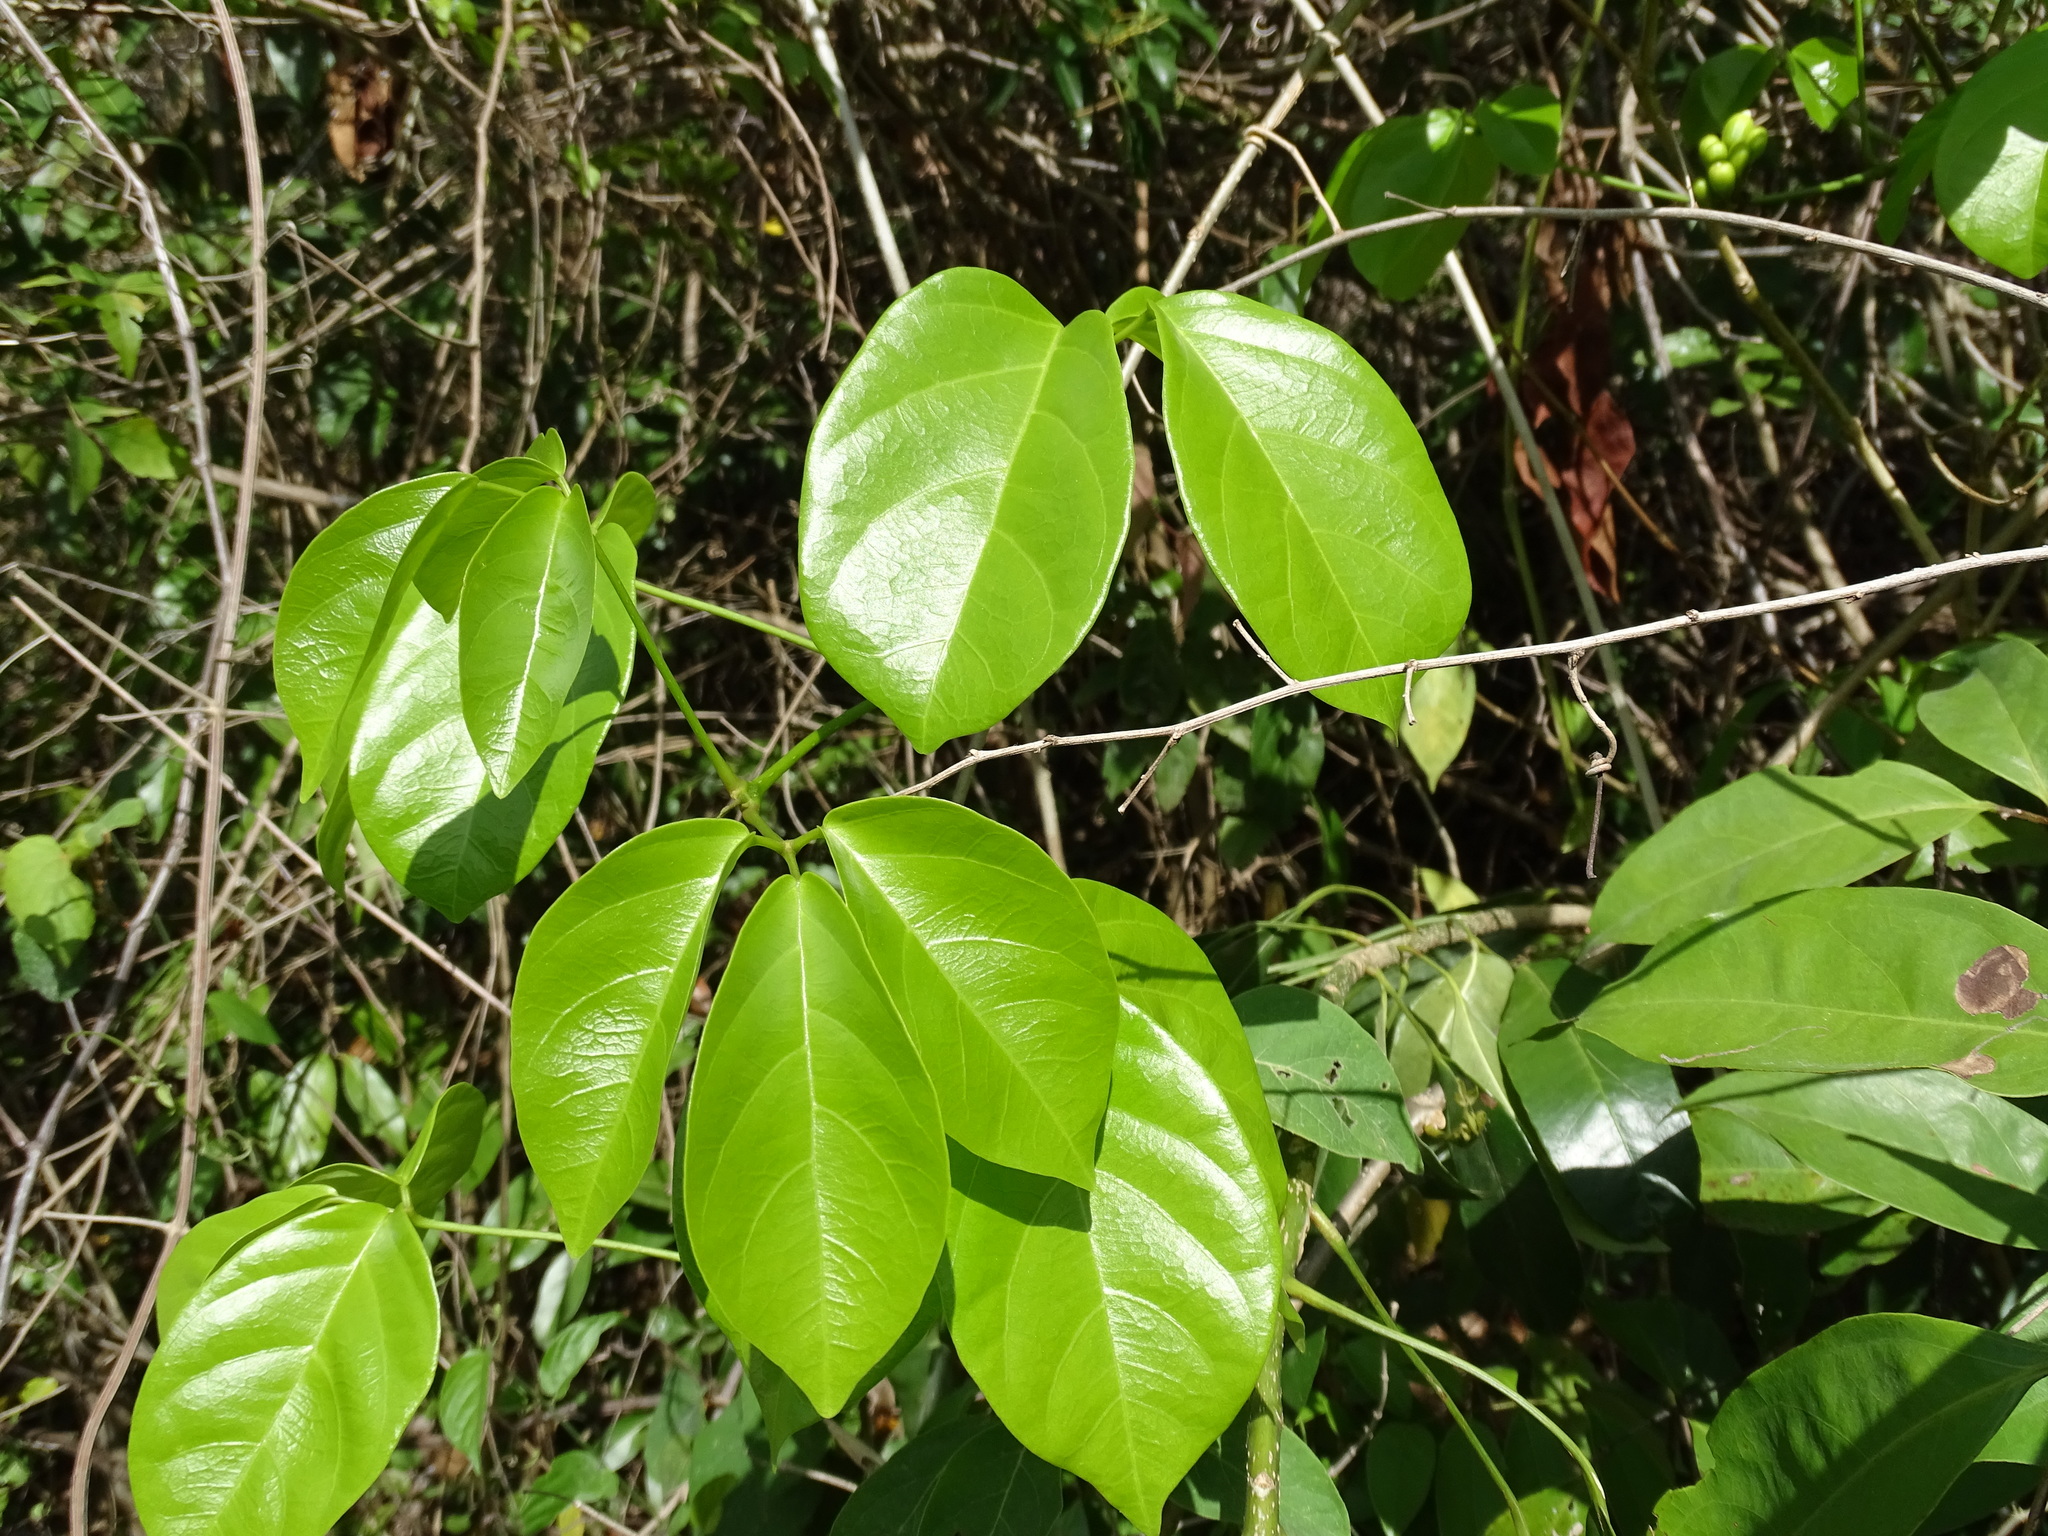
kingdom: Plantae
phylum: Tracheophyta
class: Magnoliopsida
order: Lamiales
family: Bignoniaceae
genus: Amphilophium
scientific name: Amphilophium crucigerum
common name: Monkey comb
